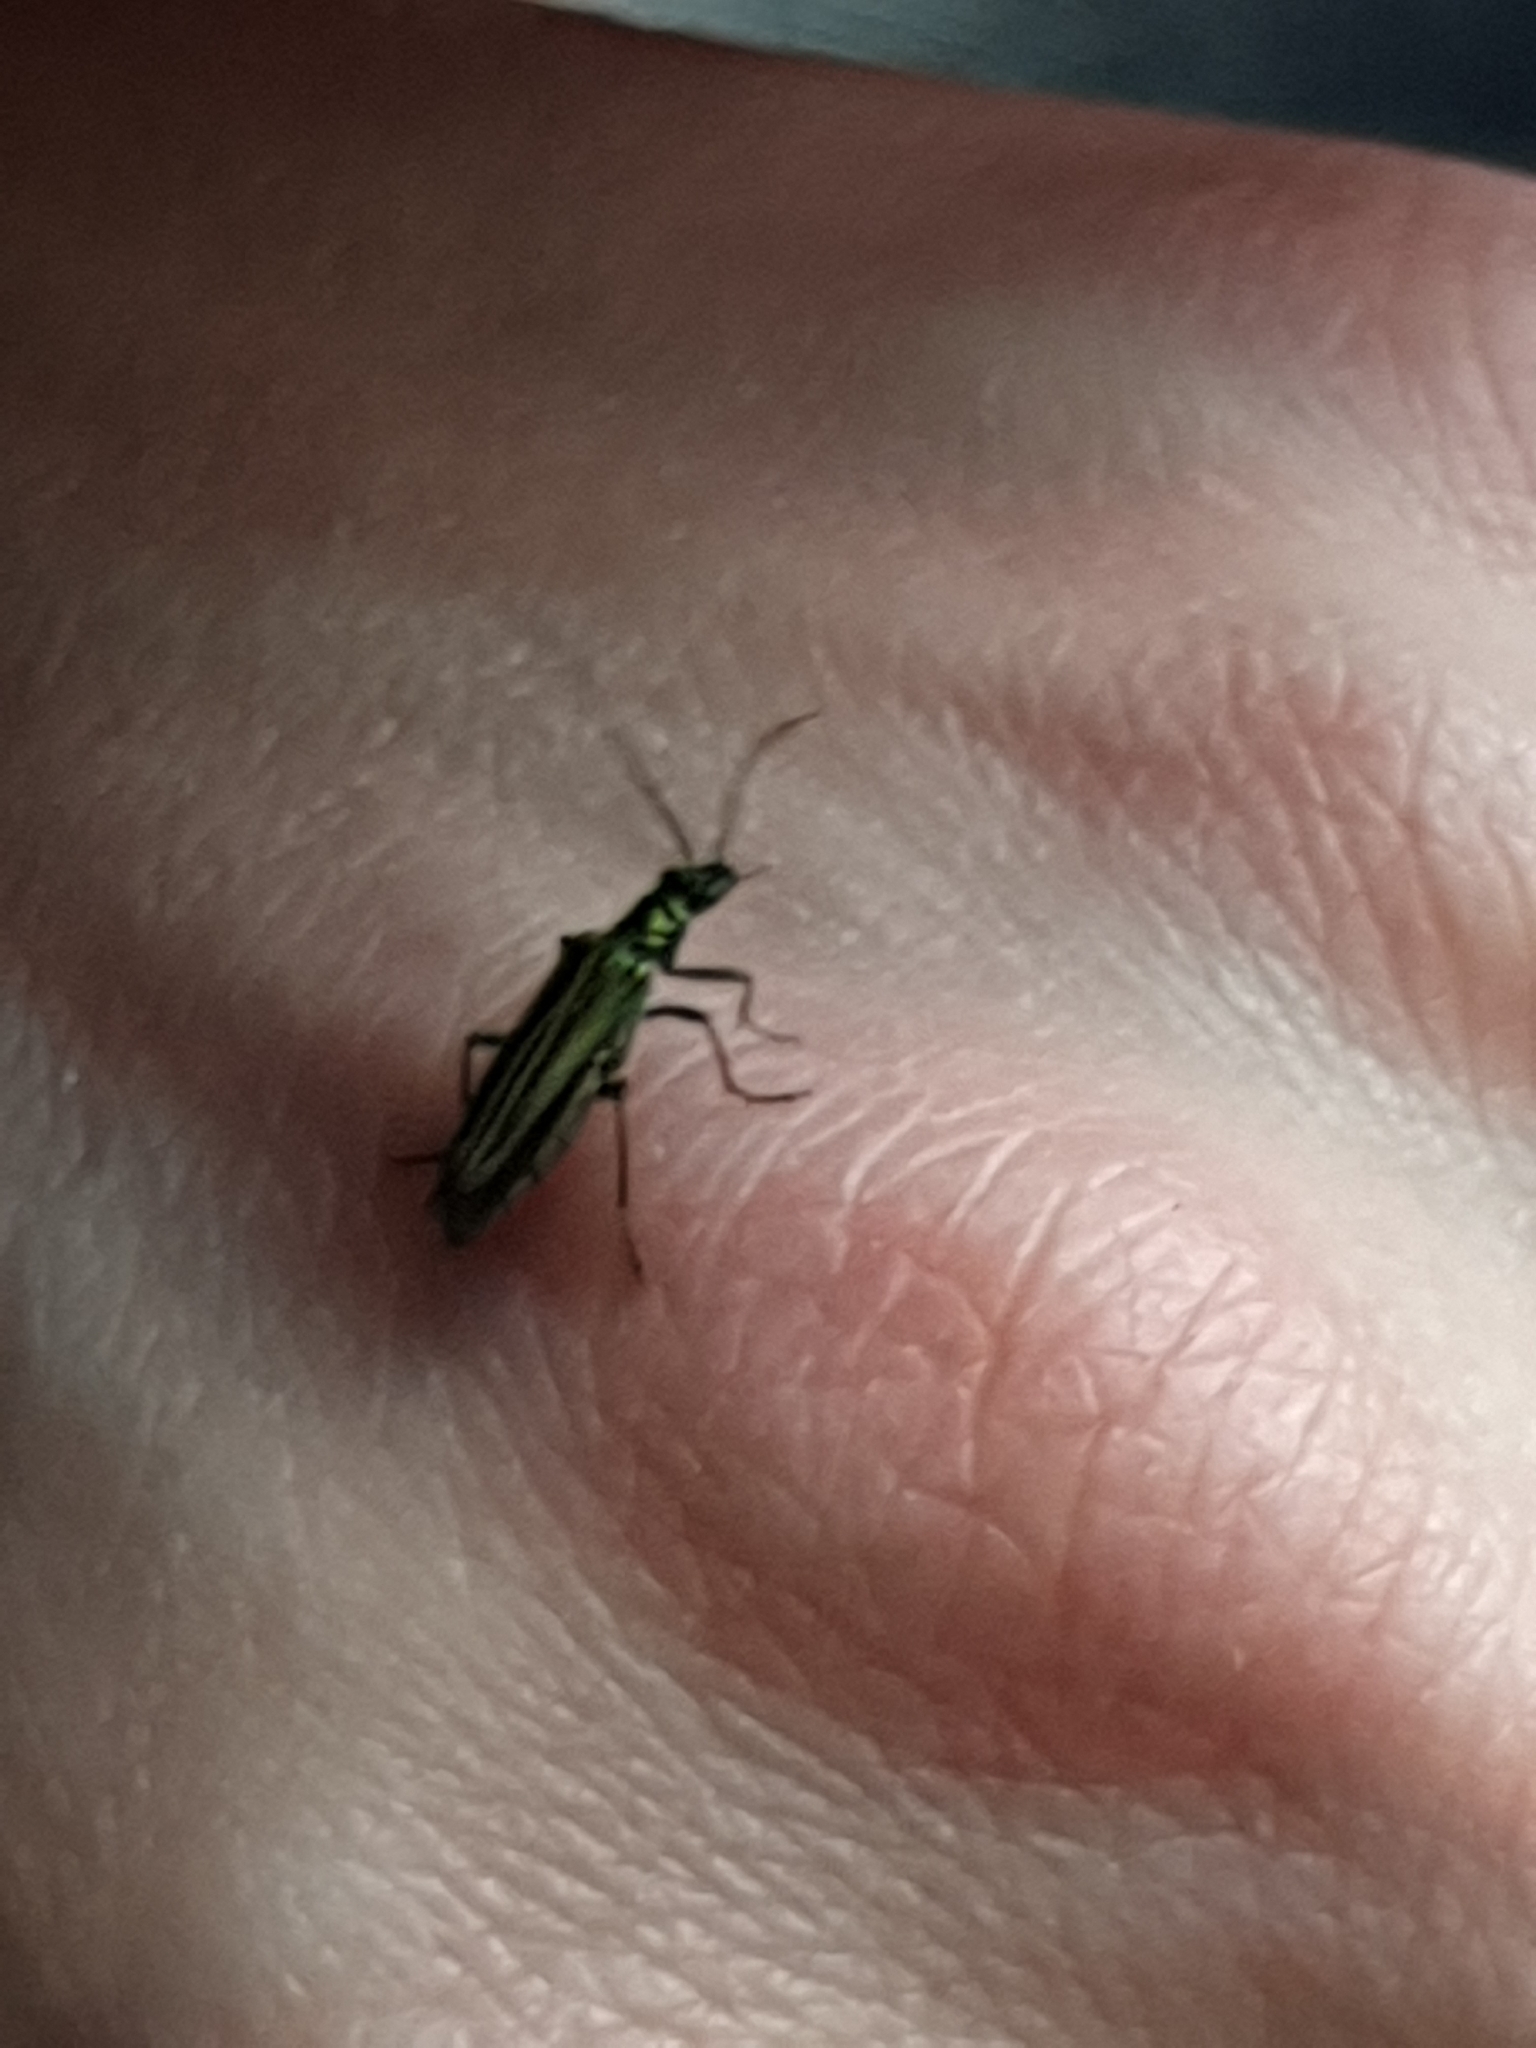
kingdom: Animalia
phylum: Arthropoda
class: Insecta
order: Coleoptera
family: Oedemeridae
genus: Oedemera
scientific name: Oedemera nobilis
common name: Swollen-thighed beetle
